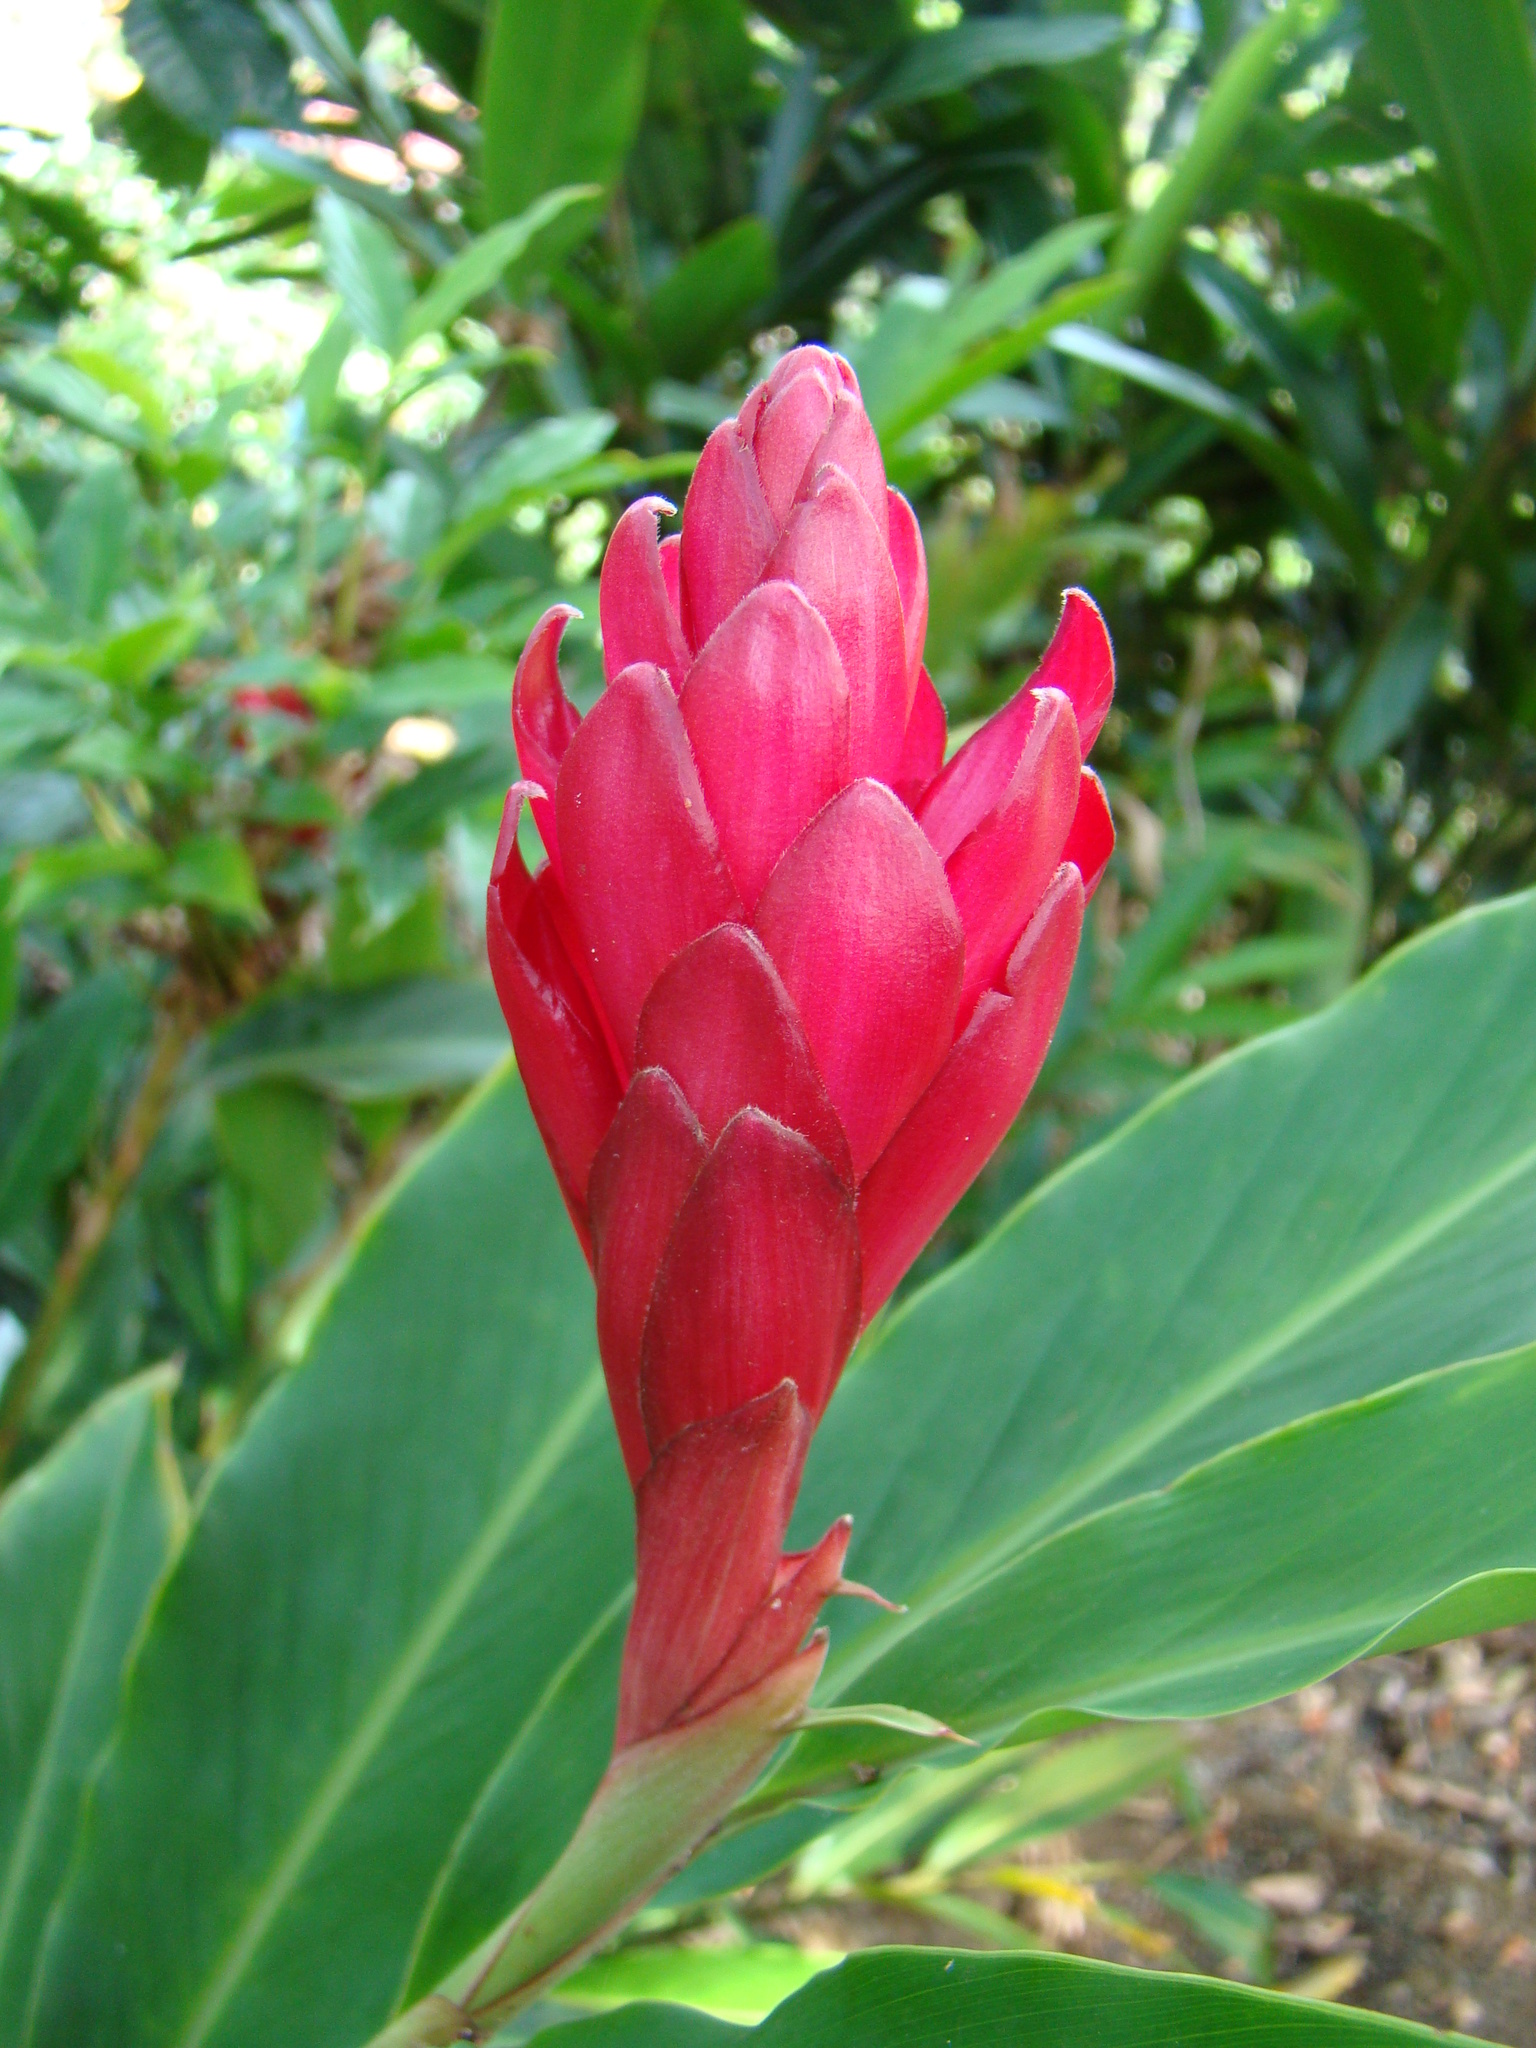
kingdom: Plantae
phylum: Tracheophyta
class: Liliopsida
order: Zingiberales
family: Zingiberaceae
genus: Alpinia
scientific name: Alpinia purpurata
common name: Red ginger
